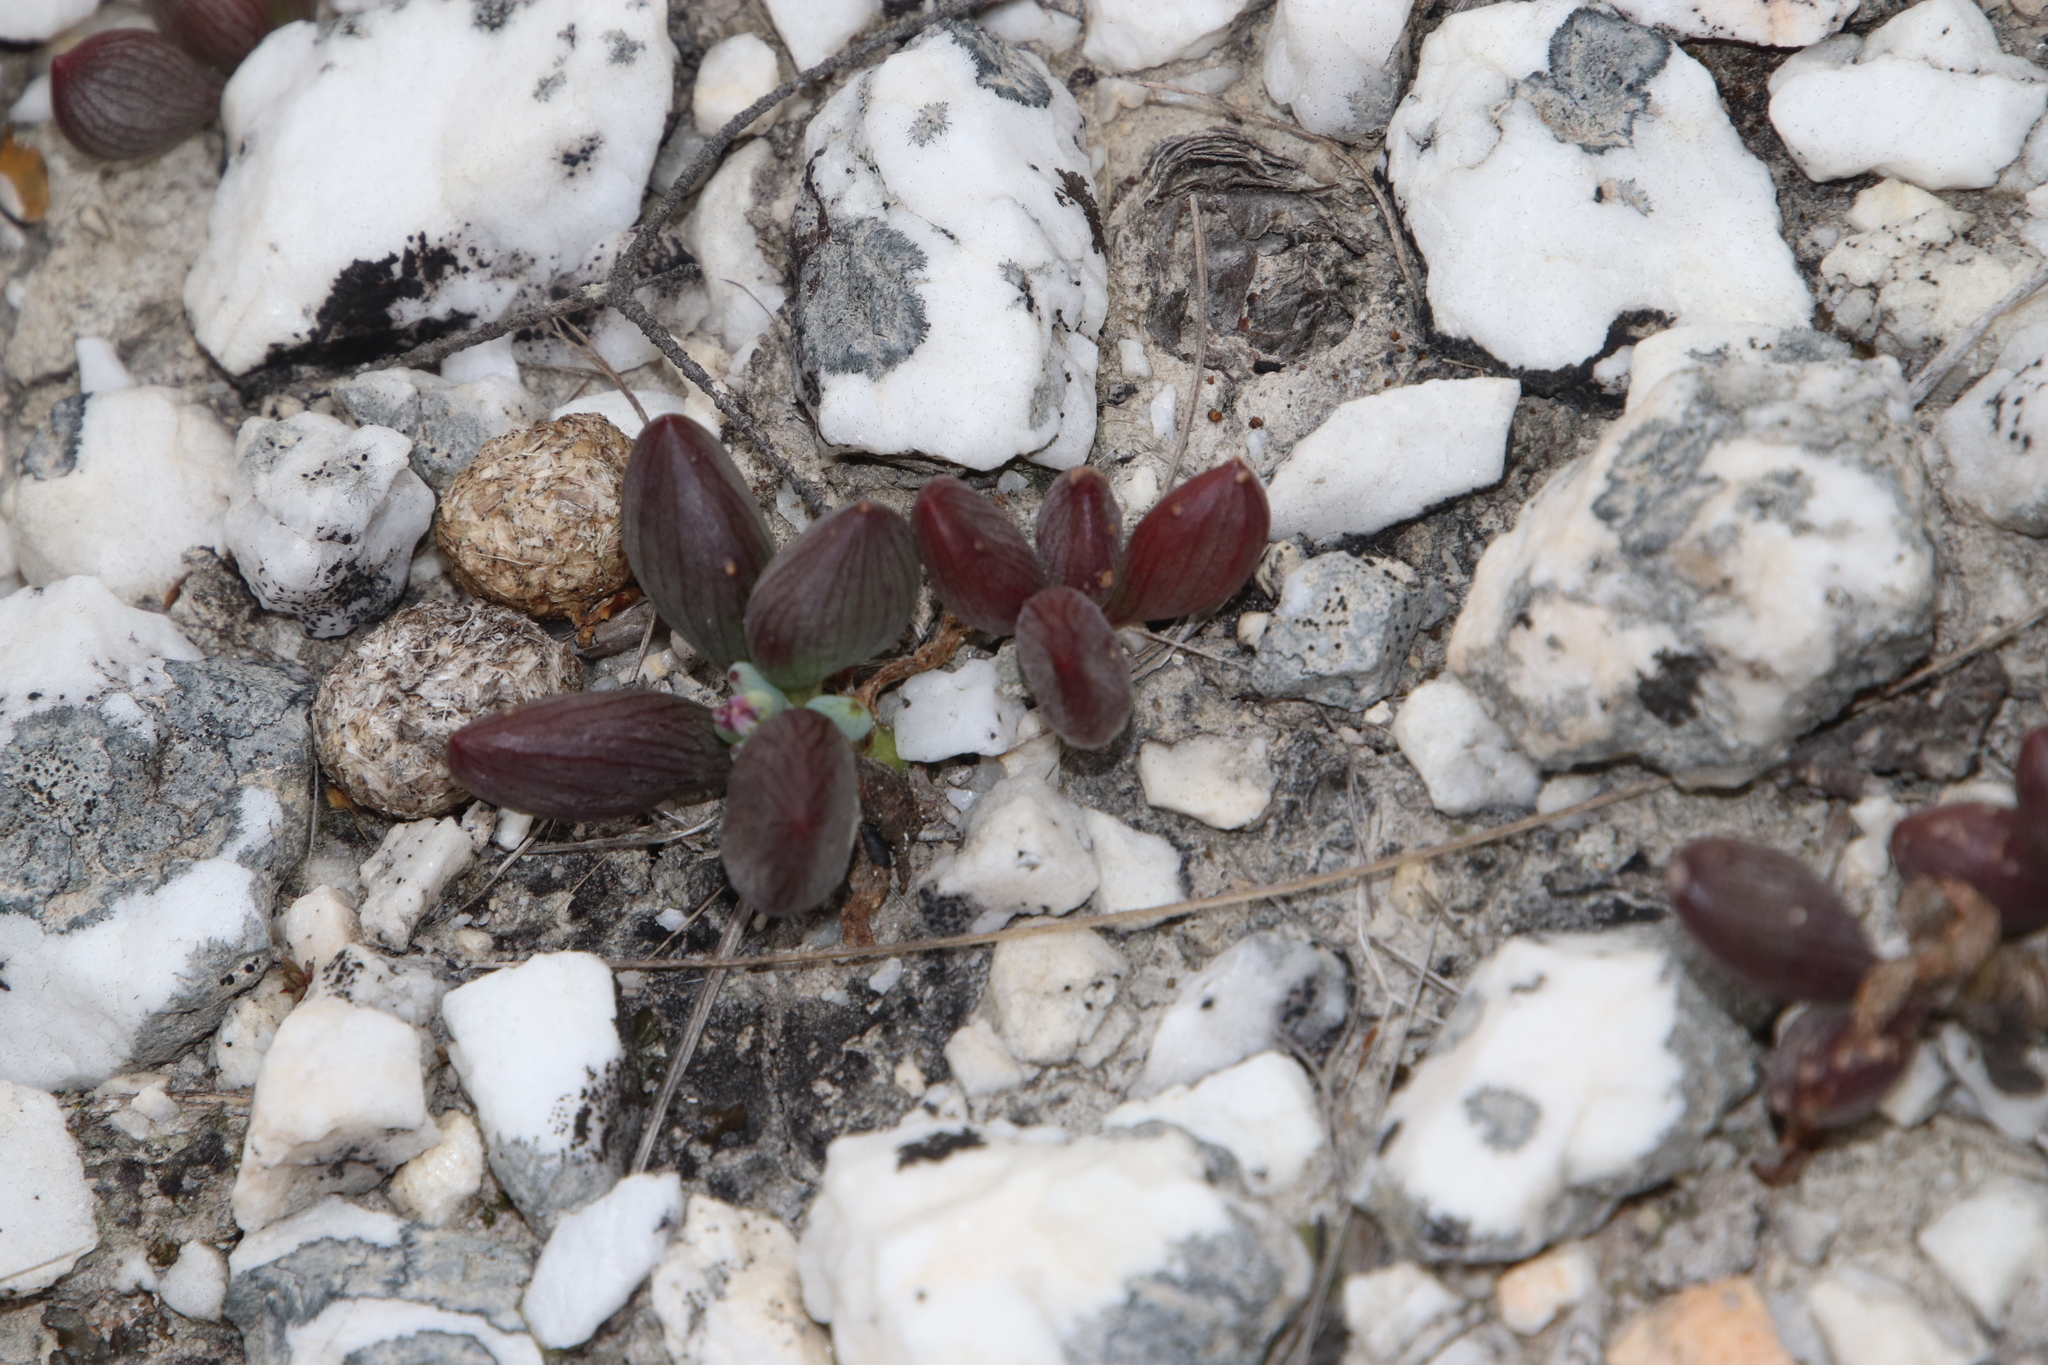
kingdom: Plantae
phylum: Tracheophyta
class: Magnoliopsida
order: Asterales
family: Asteraceae
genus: Curio
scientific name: Curio archeri
